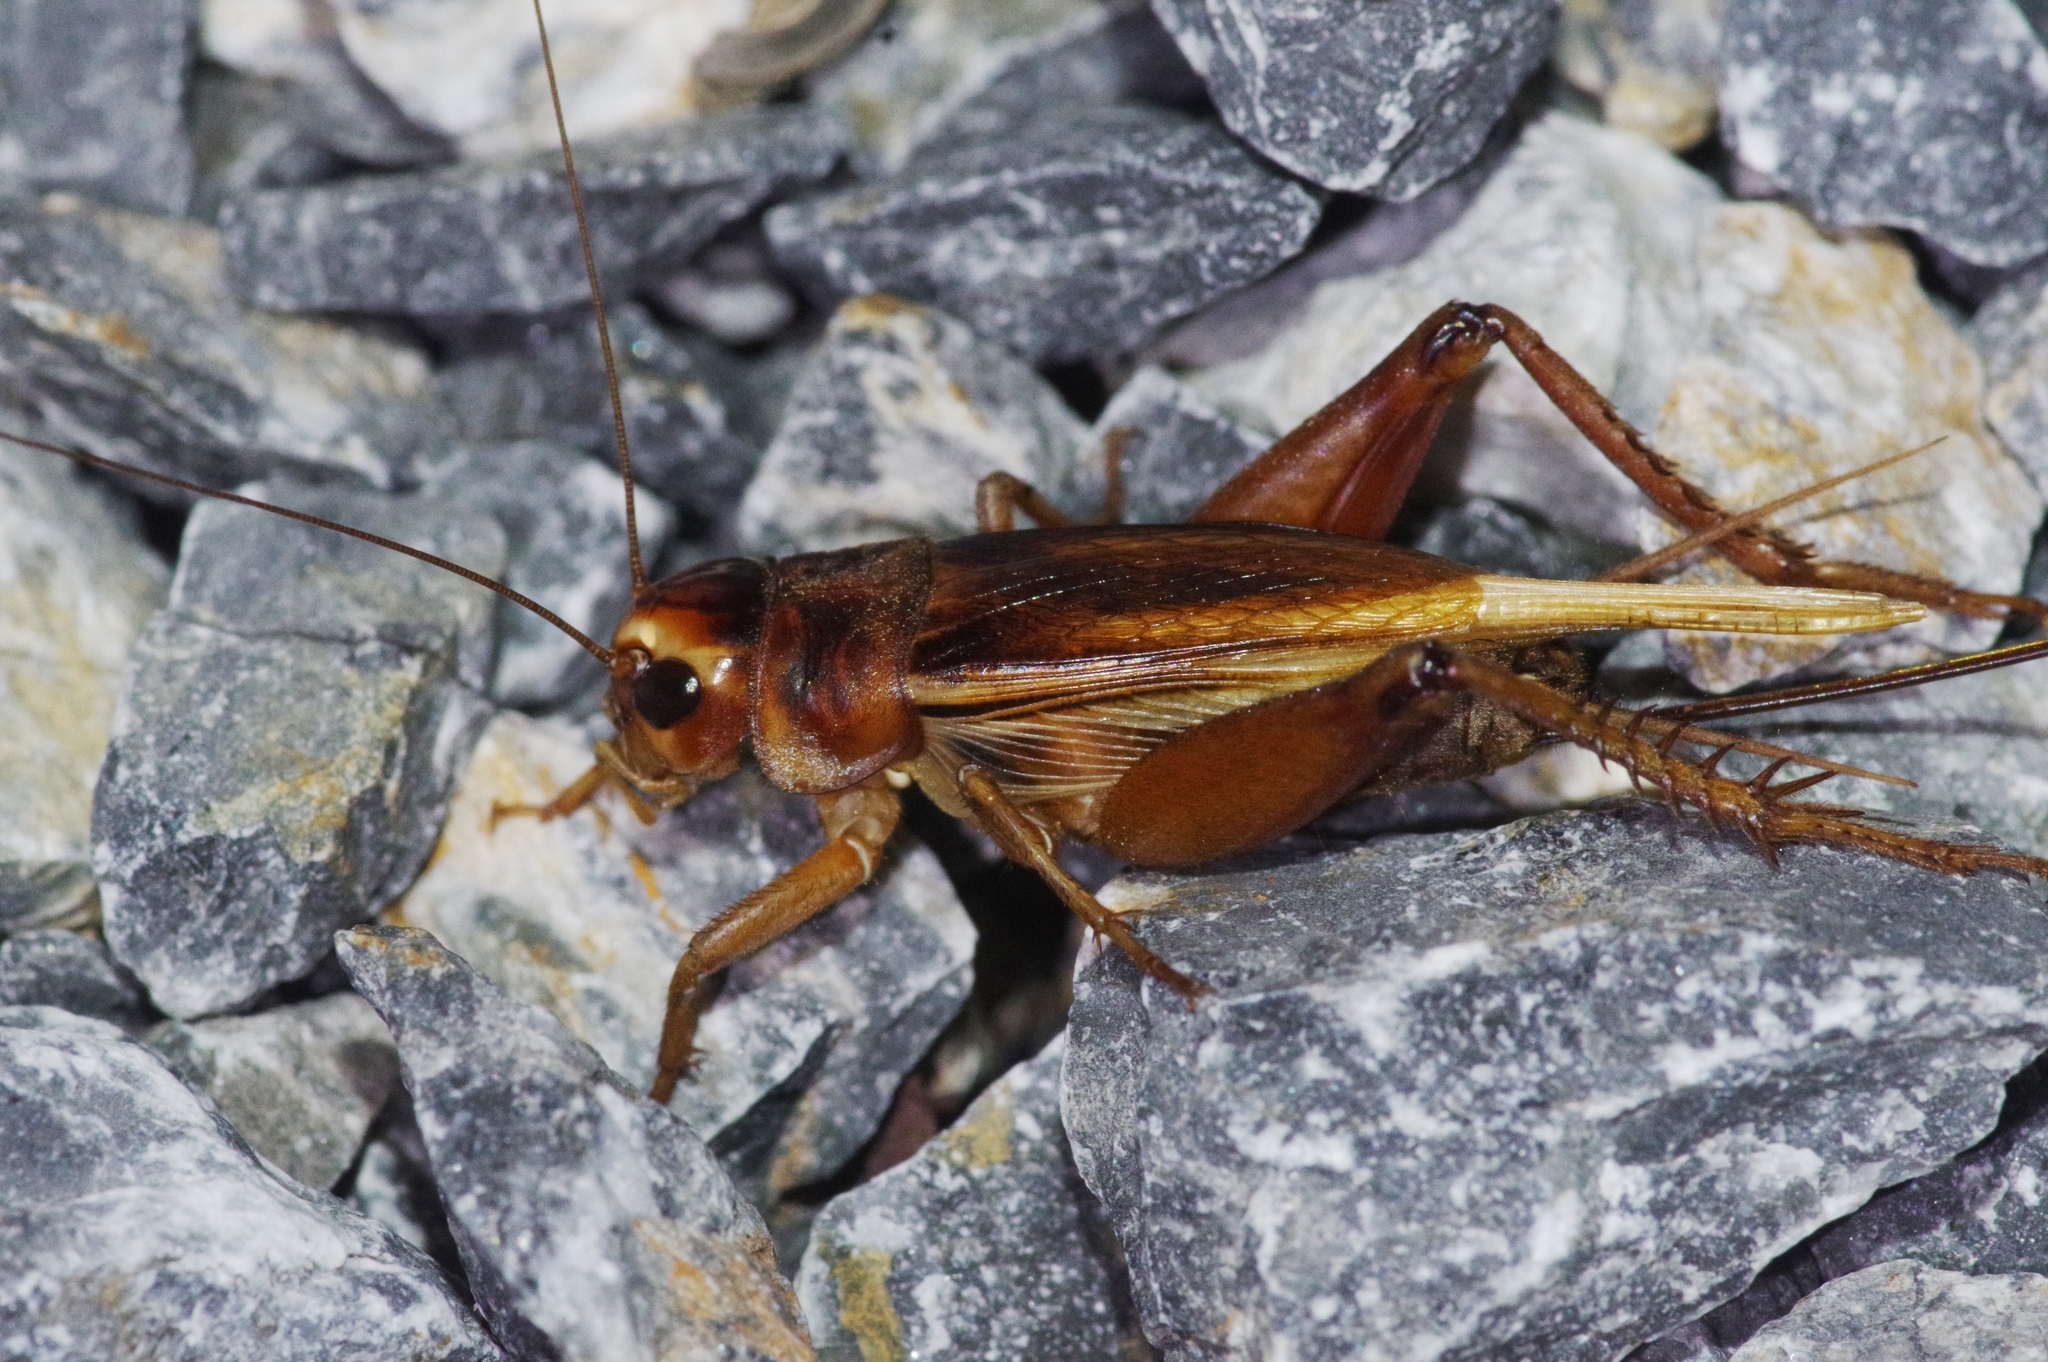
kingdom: Animalia
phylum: Arthropoda
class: Insecta
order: Orthoptera
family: Gryllidae
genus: Teleogryllus
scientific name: Teleogryllus occipitalis
